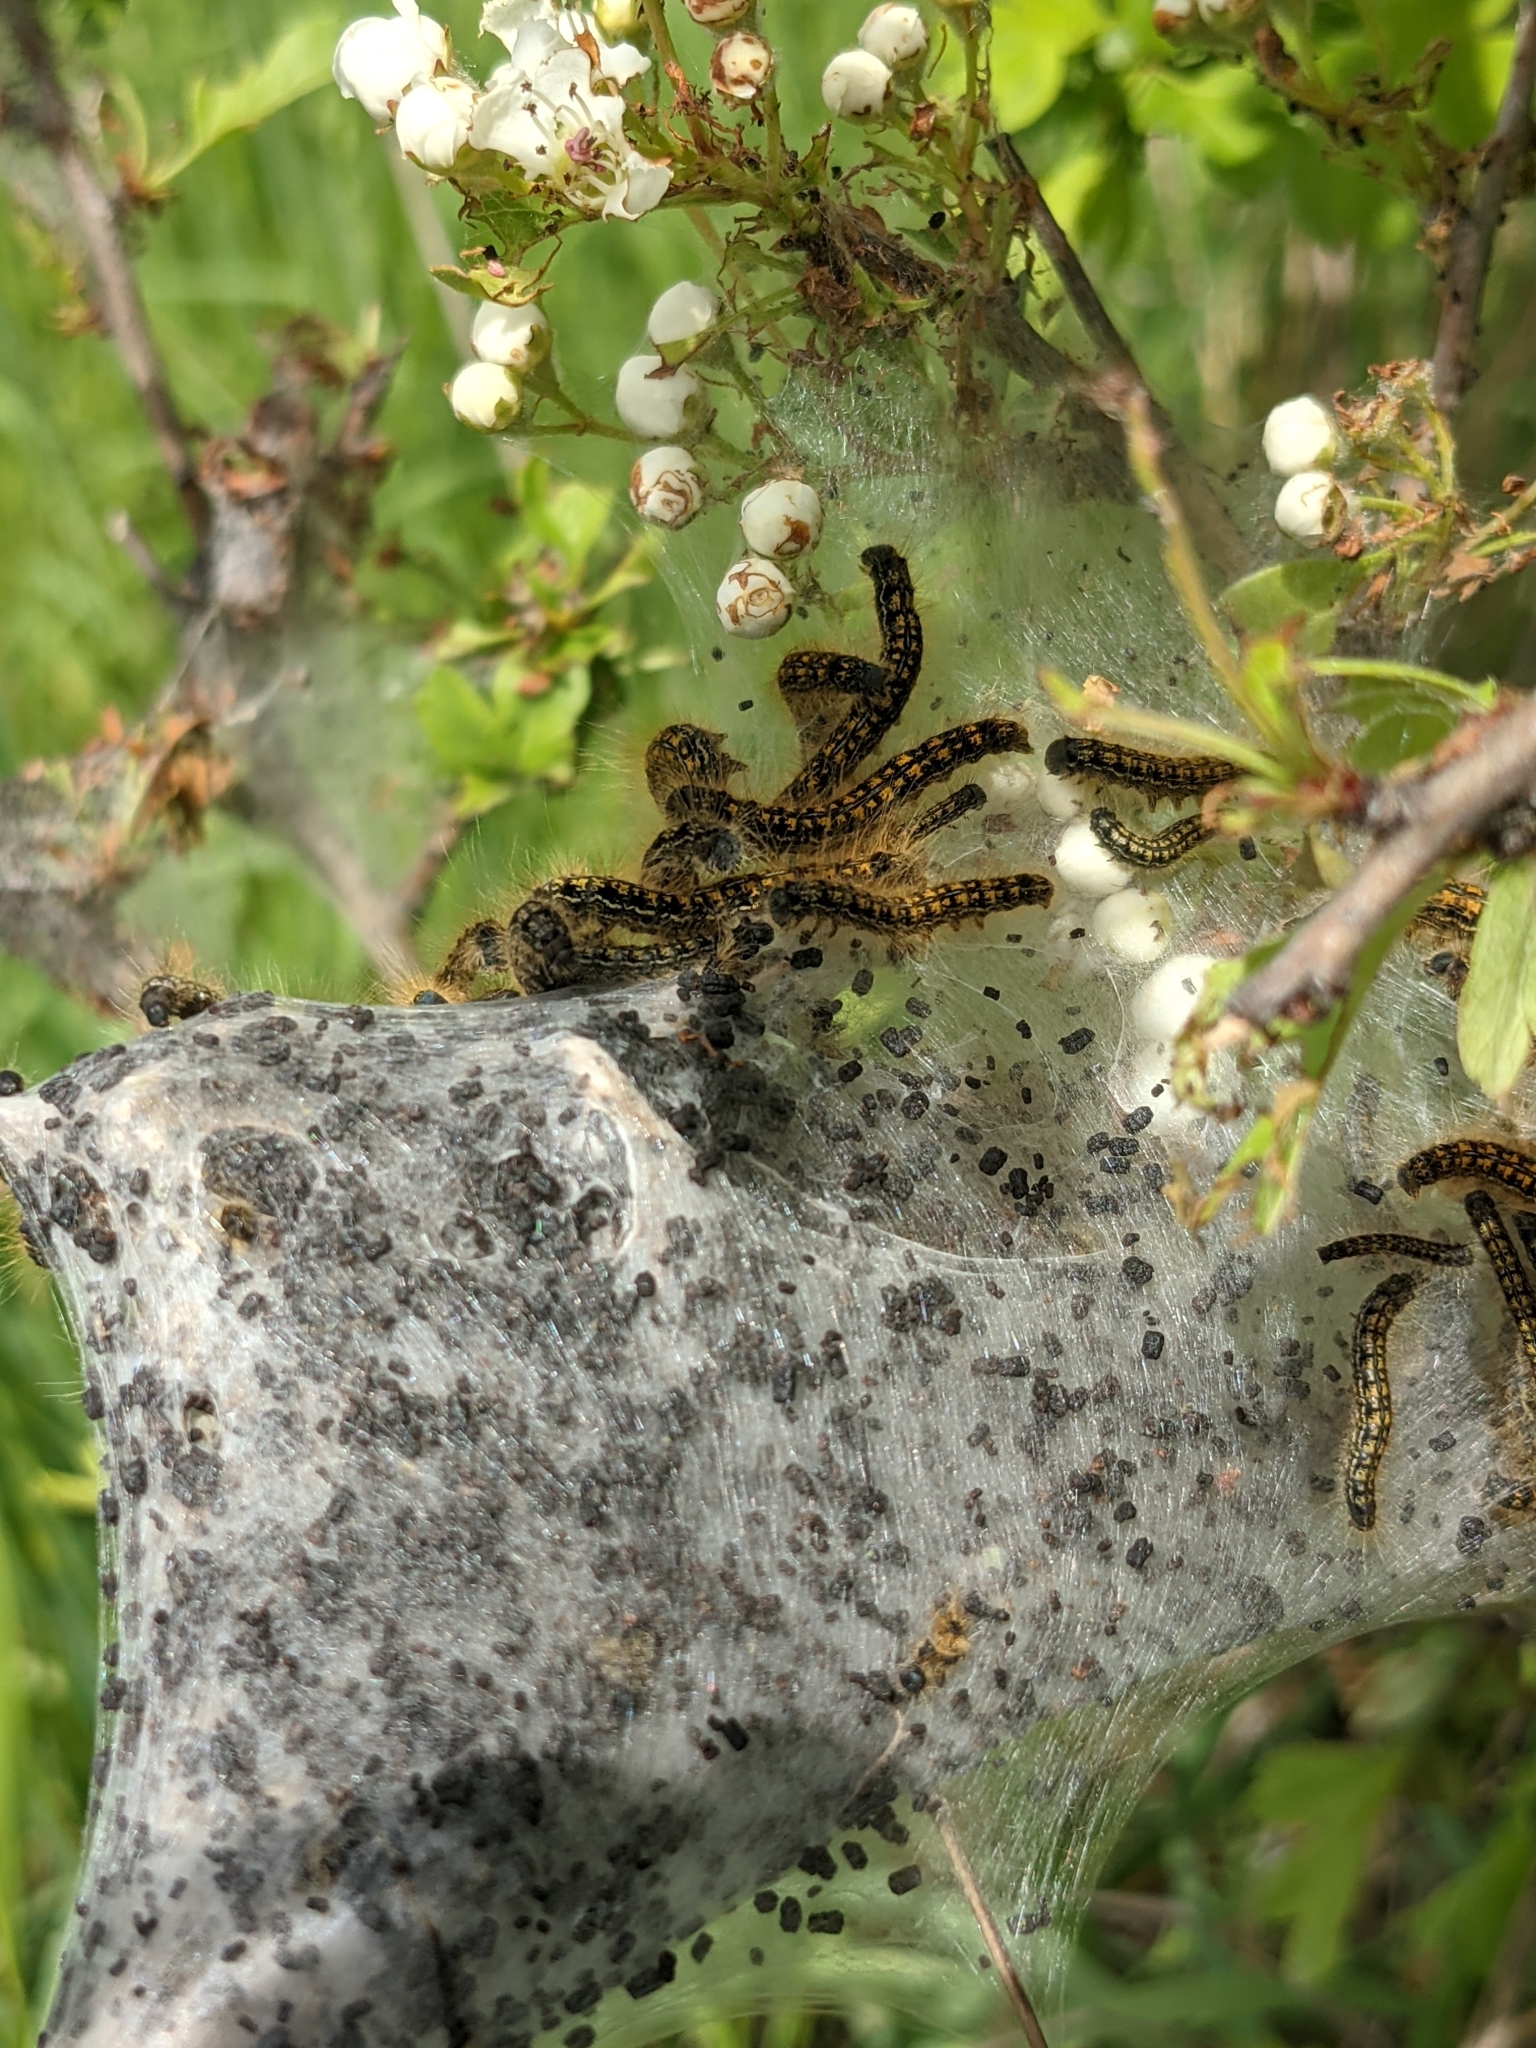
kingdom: Animalia
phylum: Arthropoda
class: Insecta
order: Lepidoptera
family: Lasiocampidae
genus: Malacosoma
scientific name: Malacosoma californica
